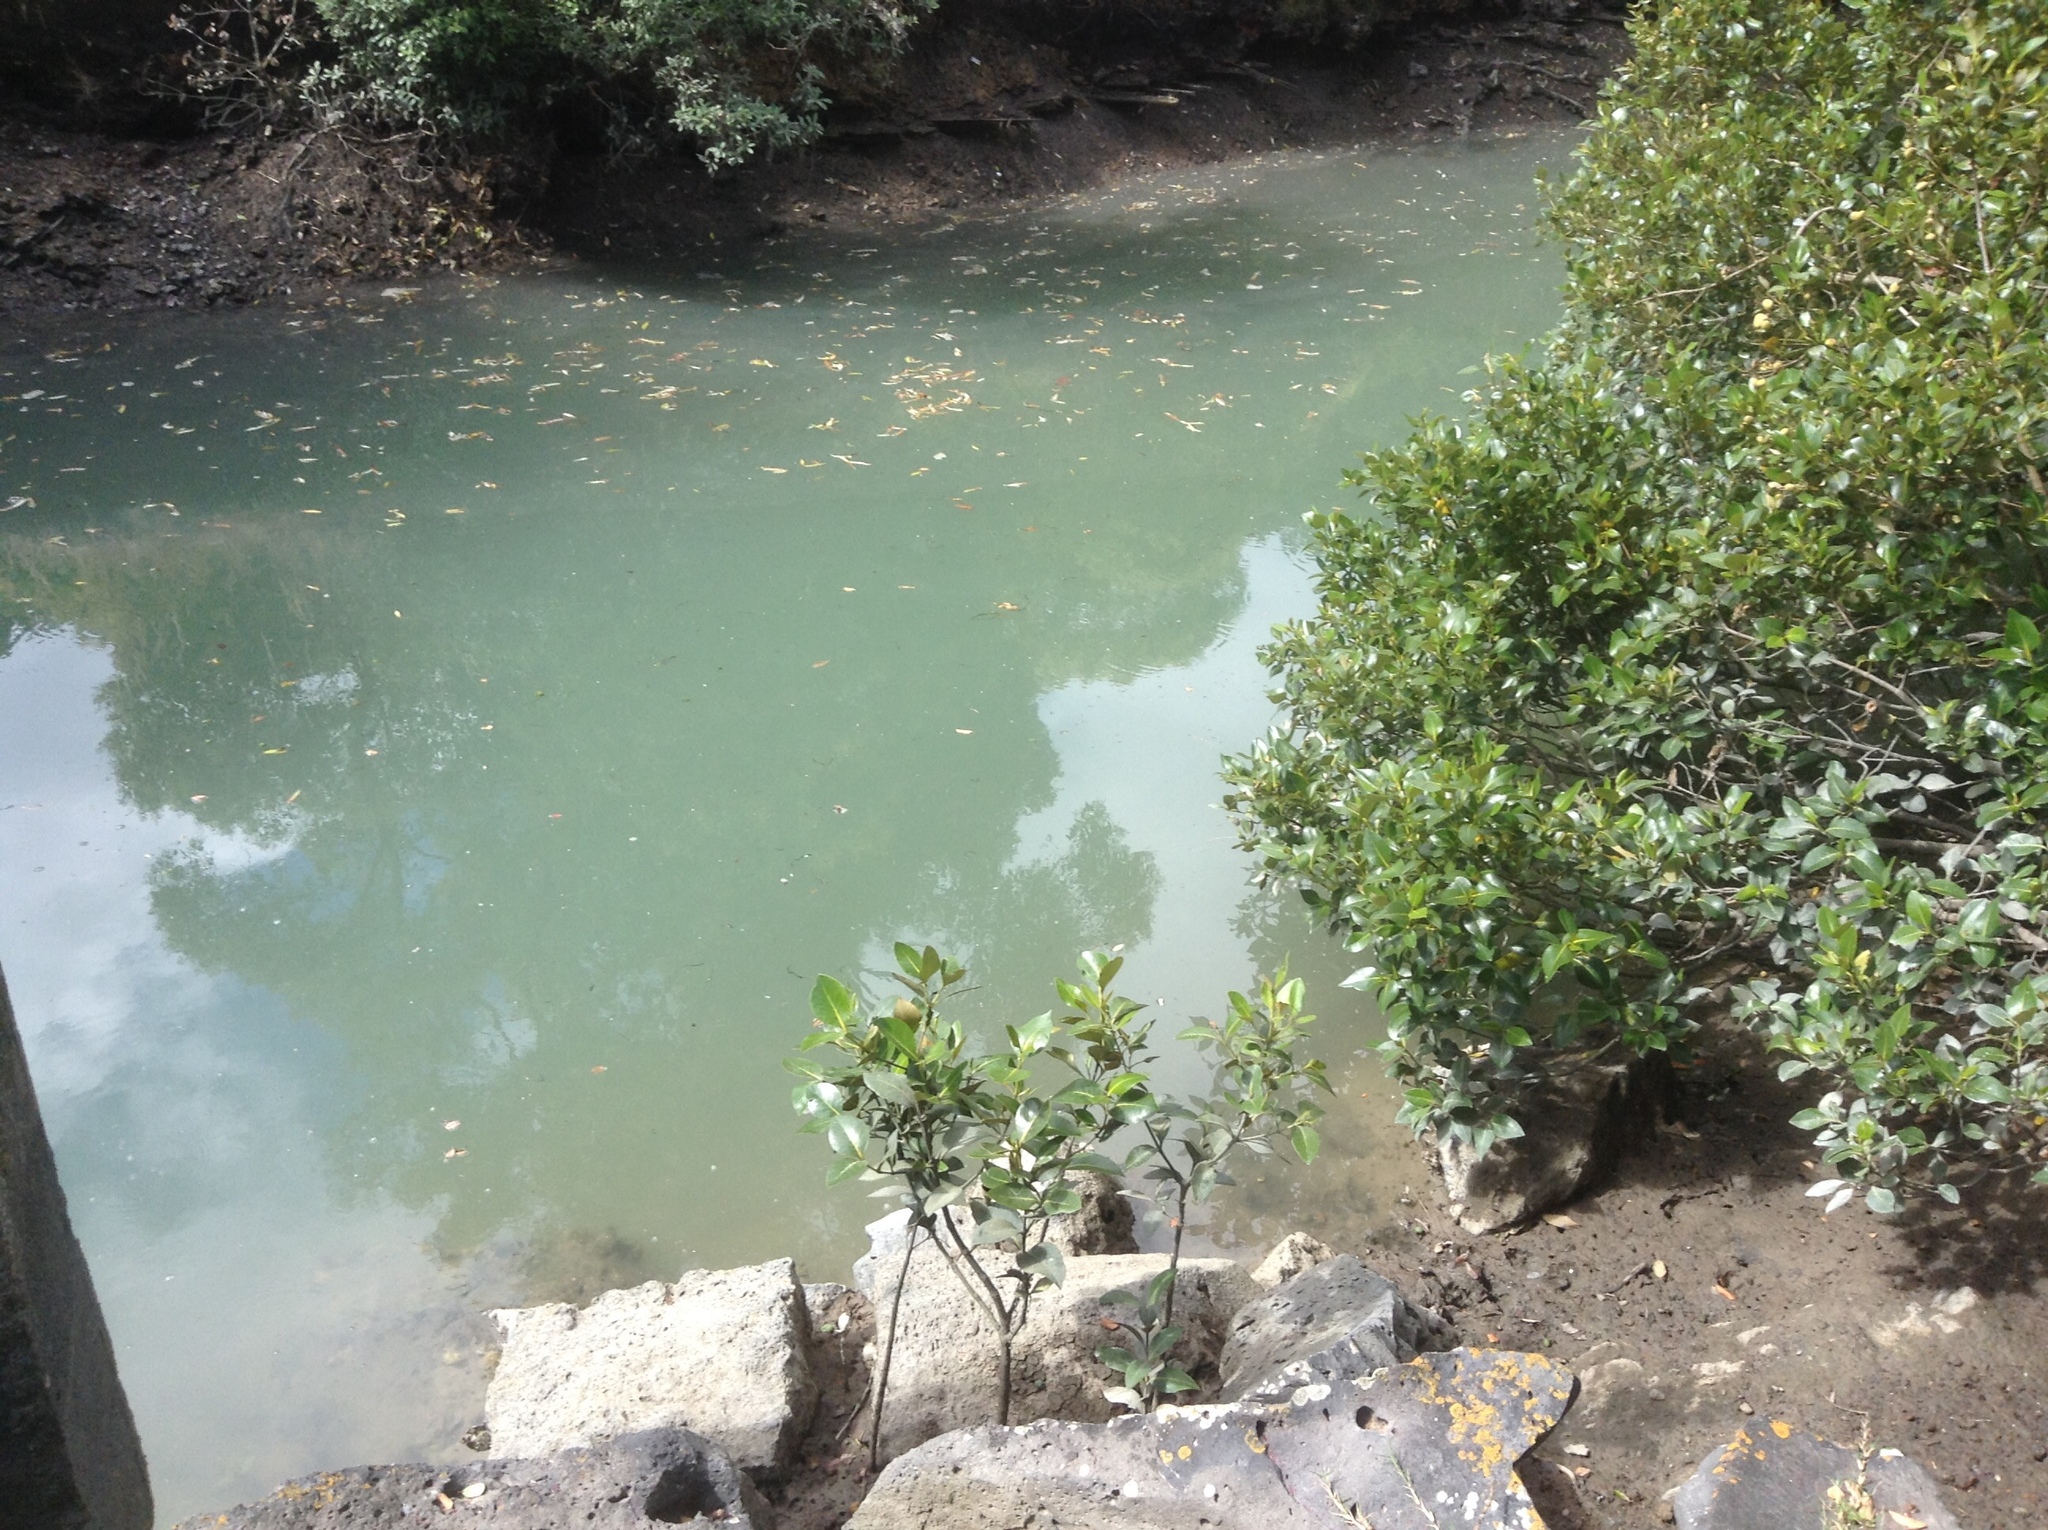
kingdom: Plantae
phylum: Tracheophyta
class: Magnoliopsida
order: Lamiales
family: Acanthaceae
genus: Avicennia
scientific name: Avicennia marina
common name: Gray mangrove
